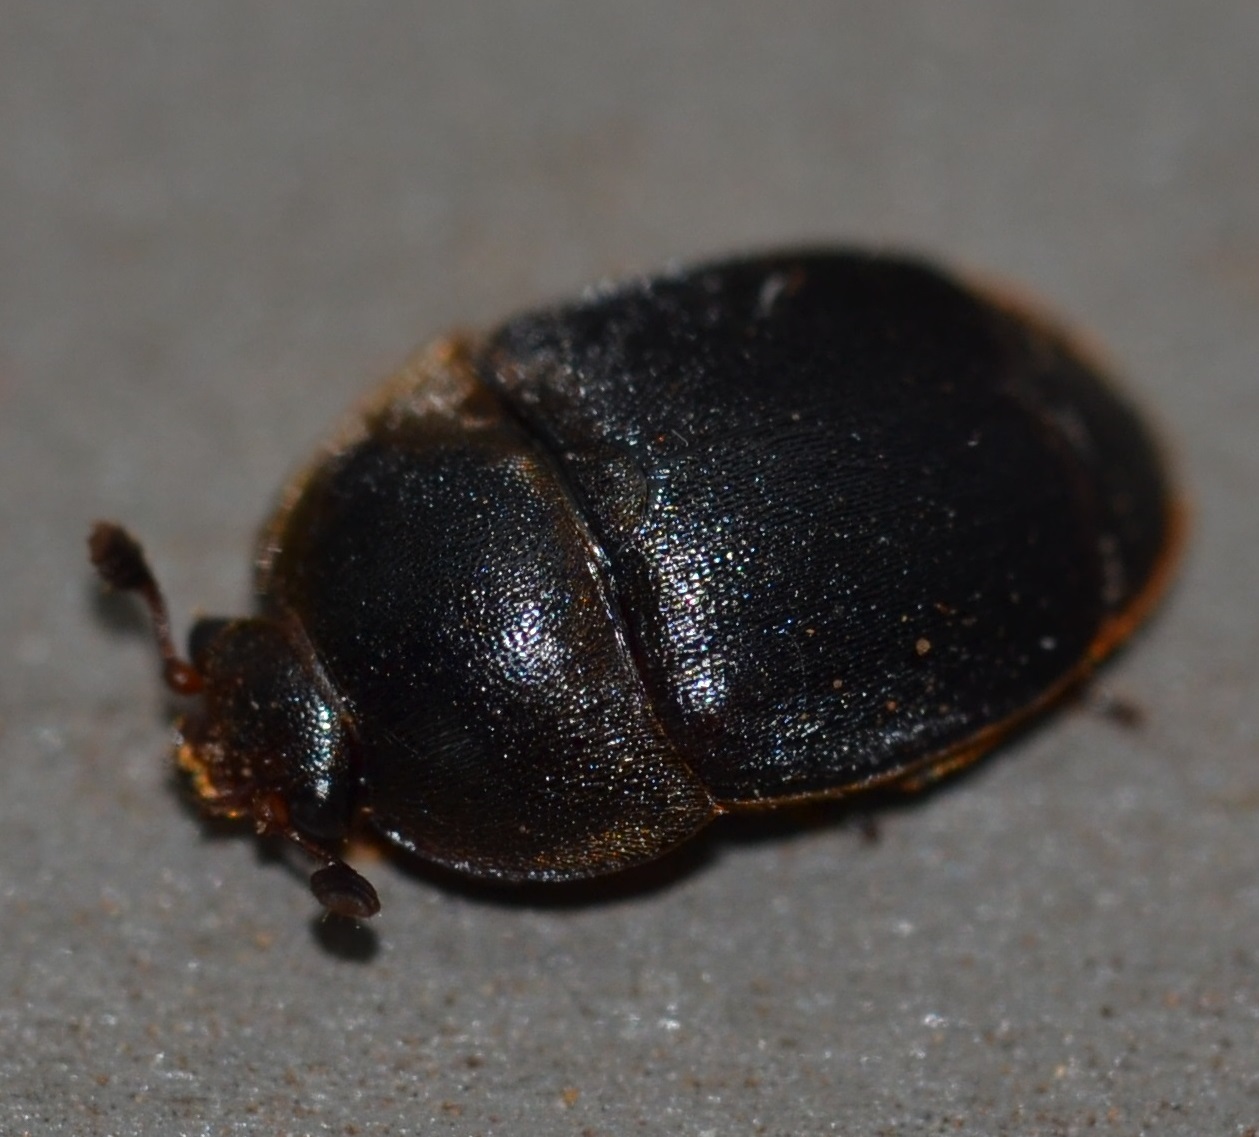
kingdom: Animalia
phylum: Arthropoda
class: Insecta
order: Coleoptera
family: Nitidulidae
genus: Aethina
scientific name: Aethina concolor
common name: Sap beetle
